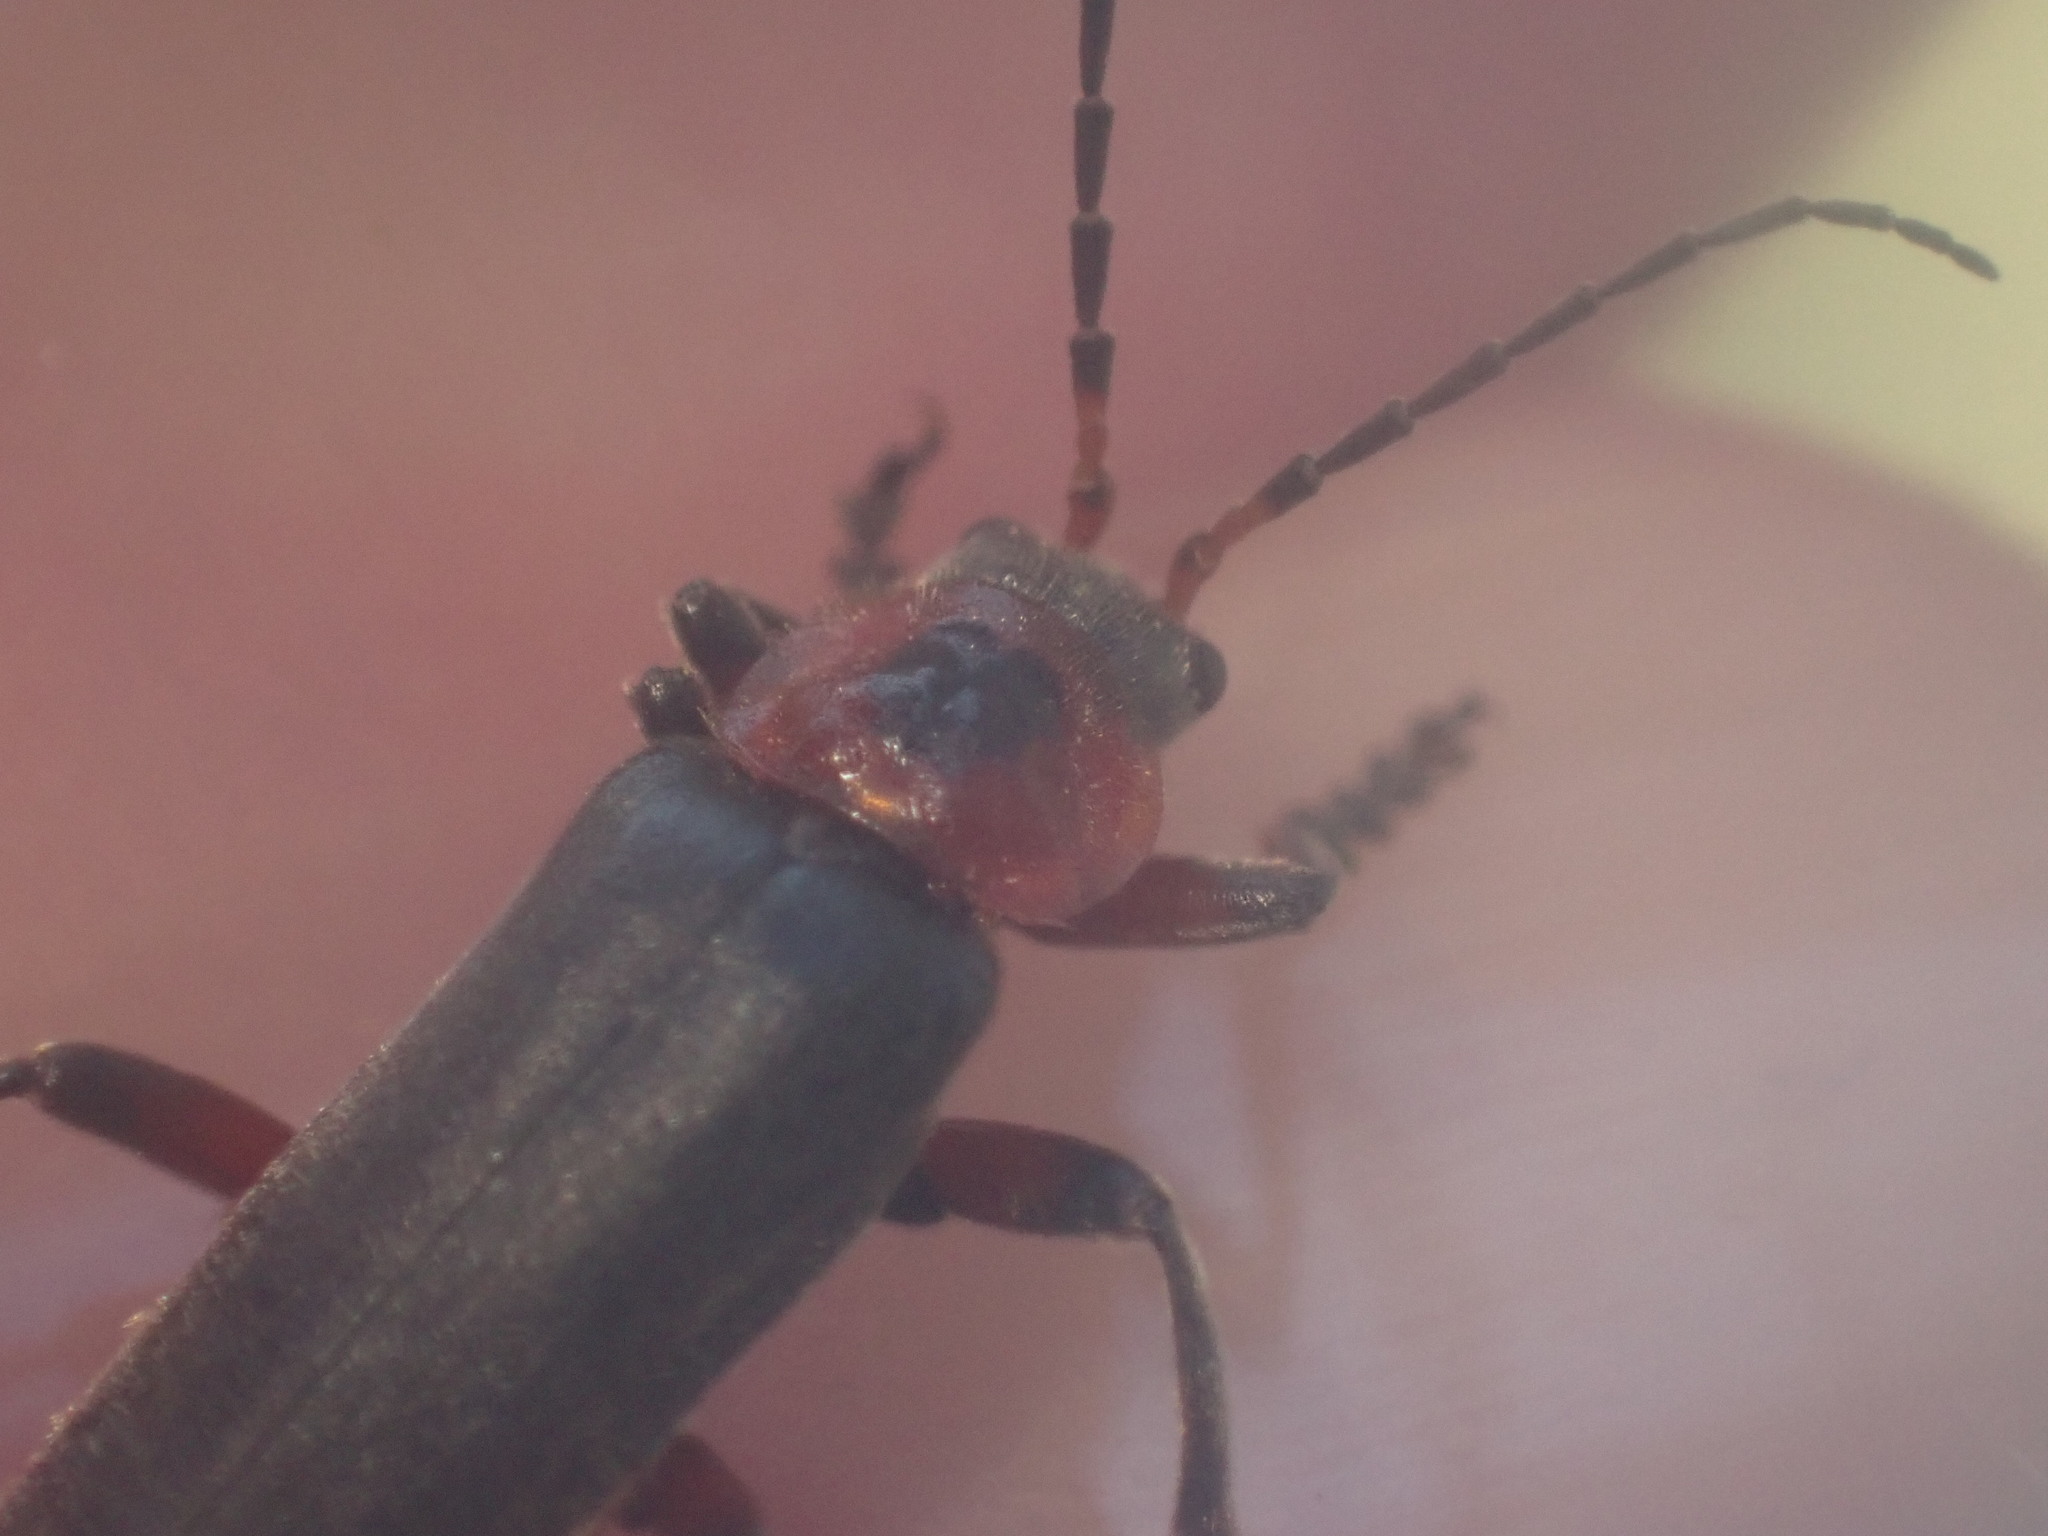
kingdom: Animalia
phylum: Arthropoda
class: Insecta
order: Coleoptera
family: Cantharidae
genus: Cantharis
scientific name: Cantharis rustica
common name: Soldier beetle
